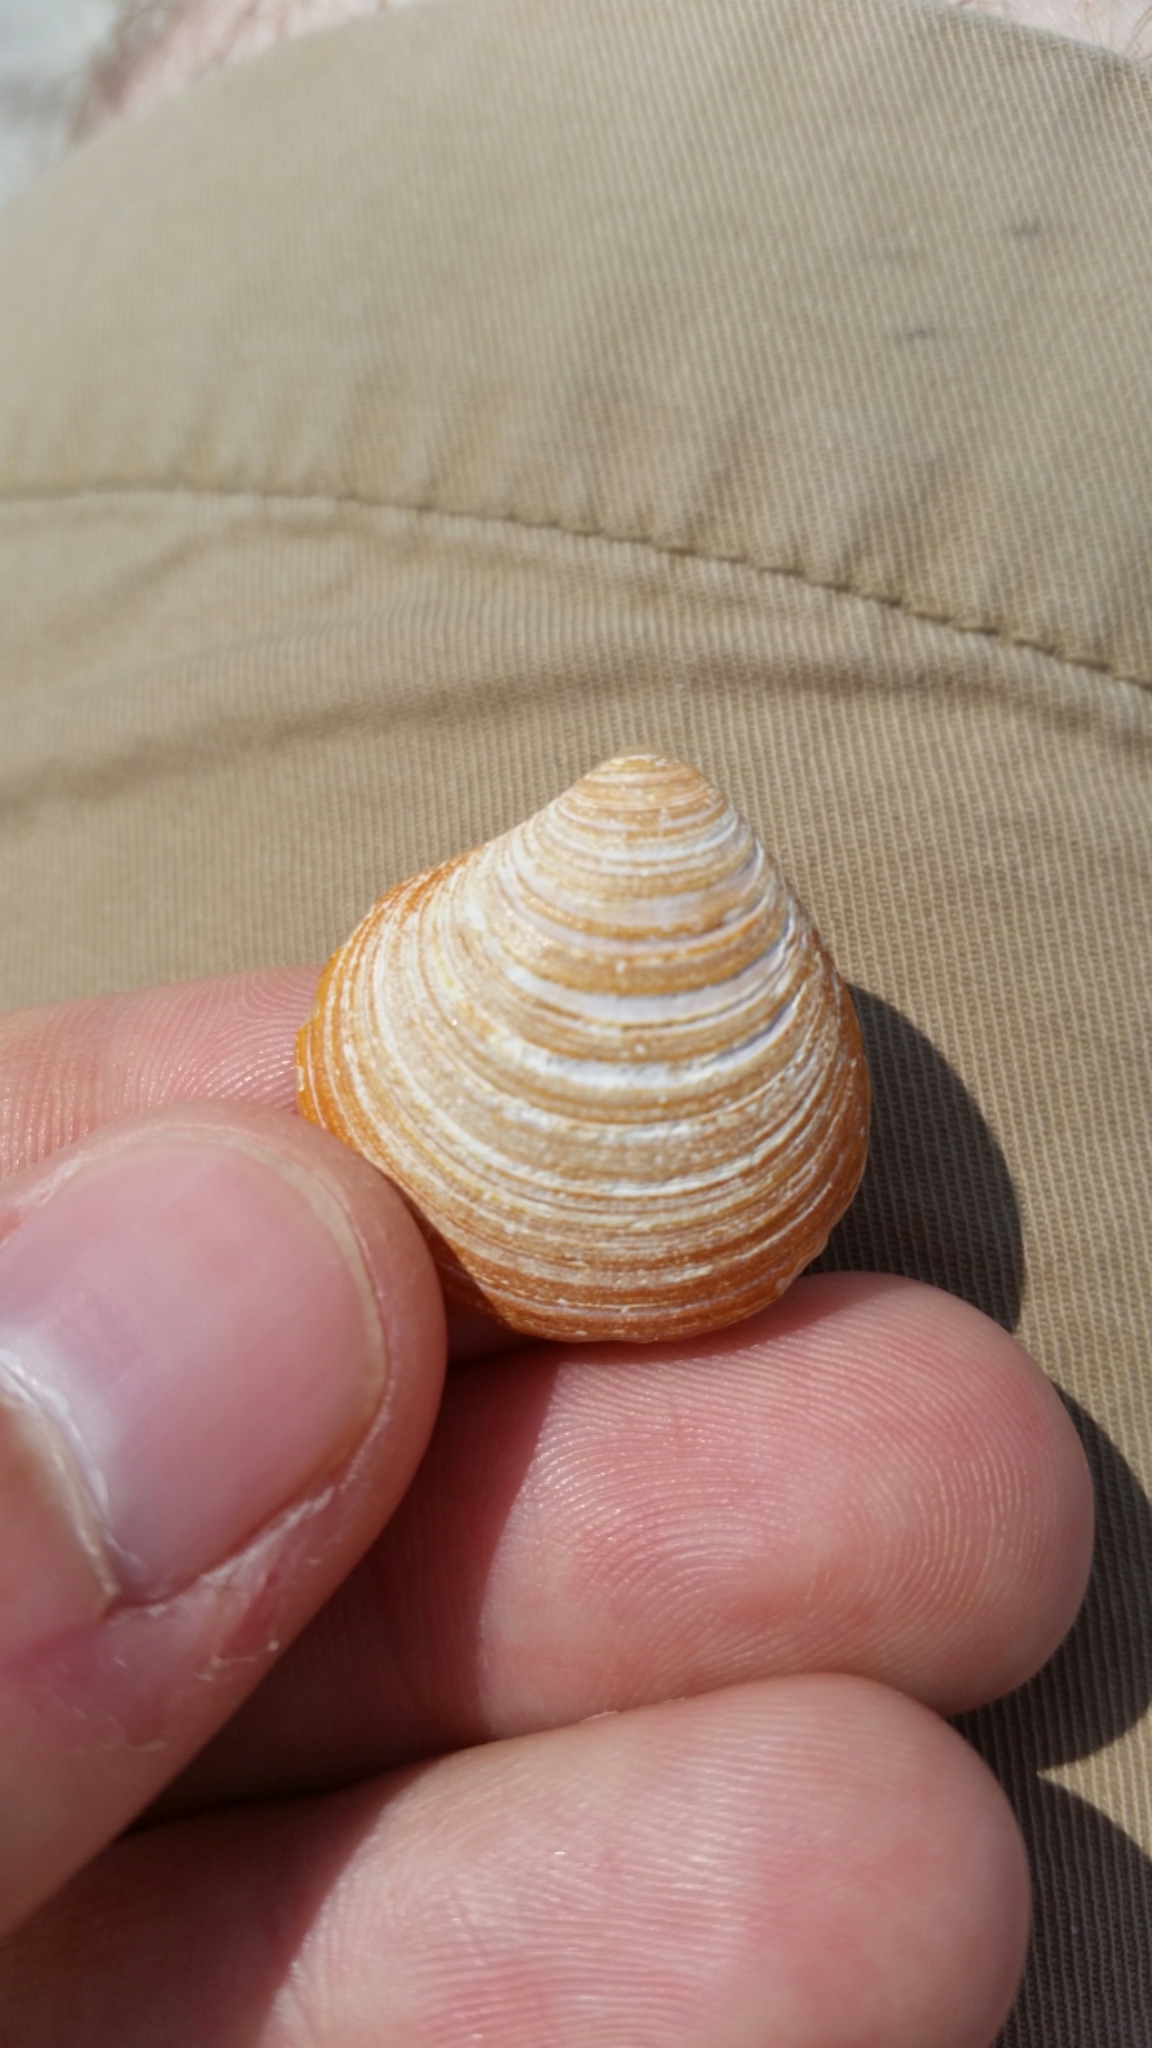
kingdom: Animalia
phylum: Mollusca
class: Bivalvia
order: Cardiida
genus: Isocrassina
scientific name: Isocrassina
